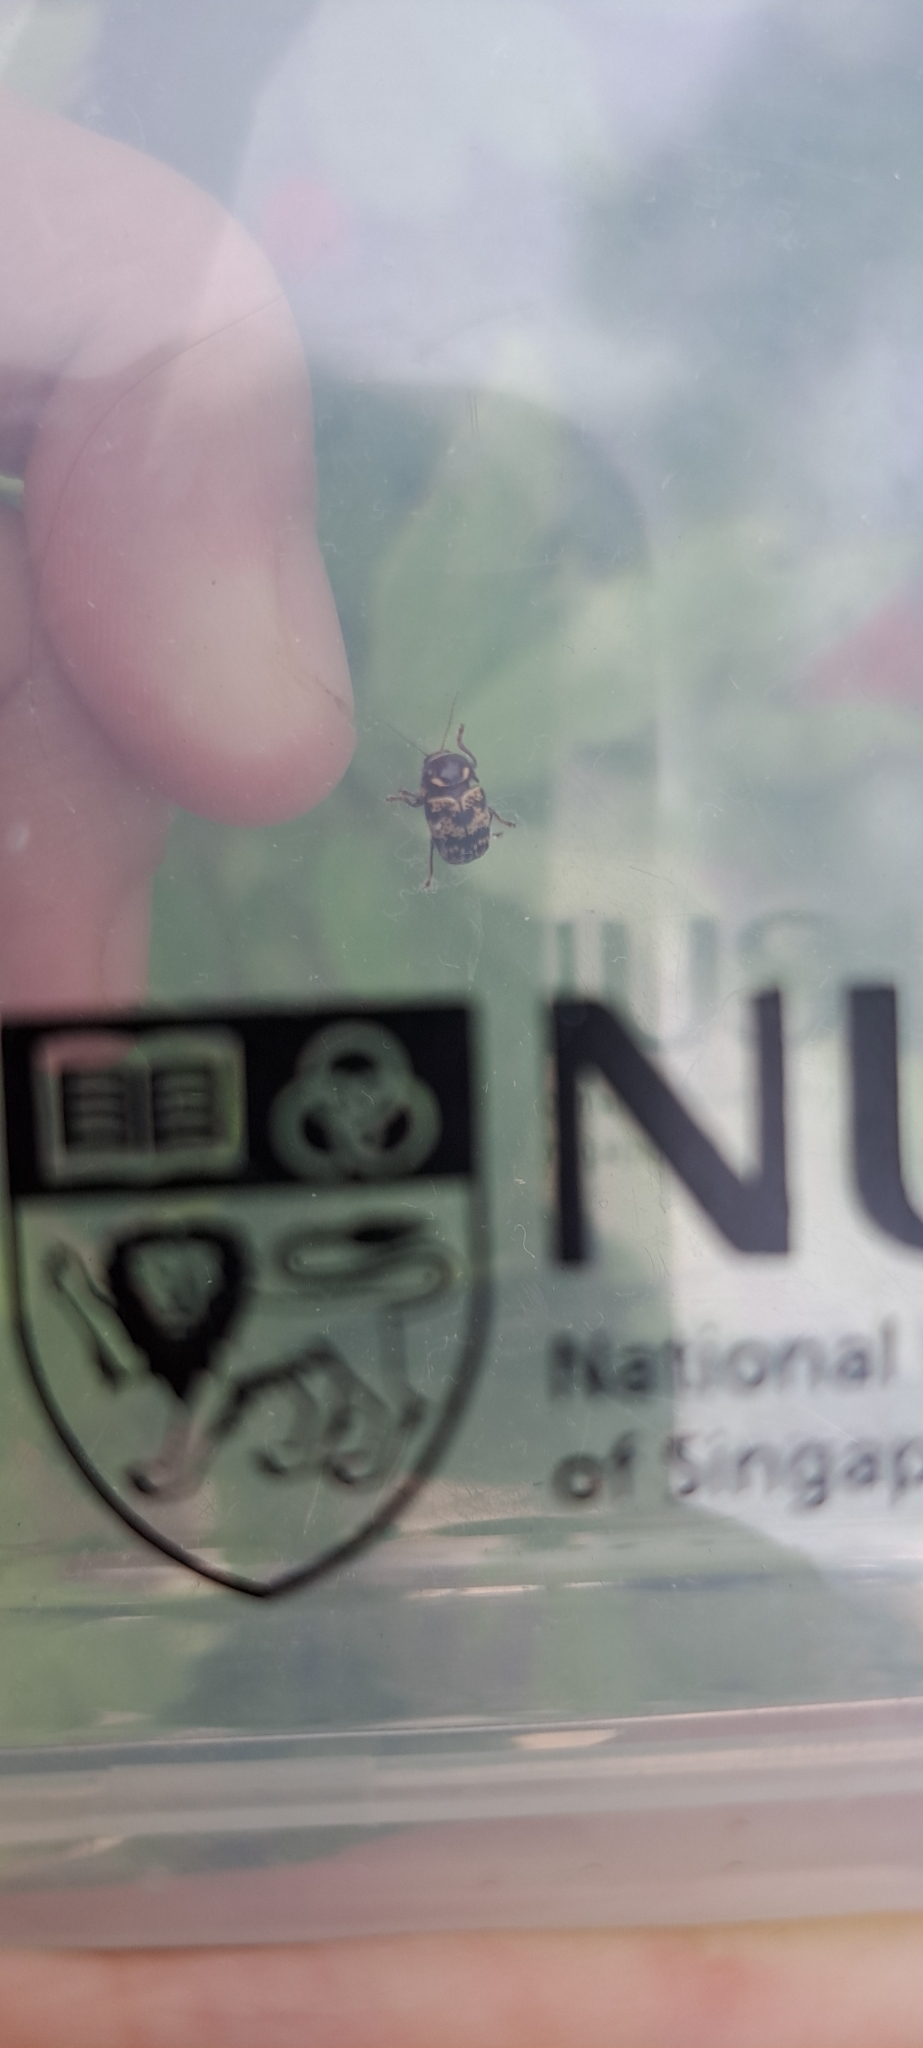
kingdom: Animalia
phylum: Arthropoda
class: Insecta
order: Coleoptera
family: Chrysomelidae
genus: Cryptocephalus
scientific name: Cryptocephalus irroratus
